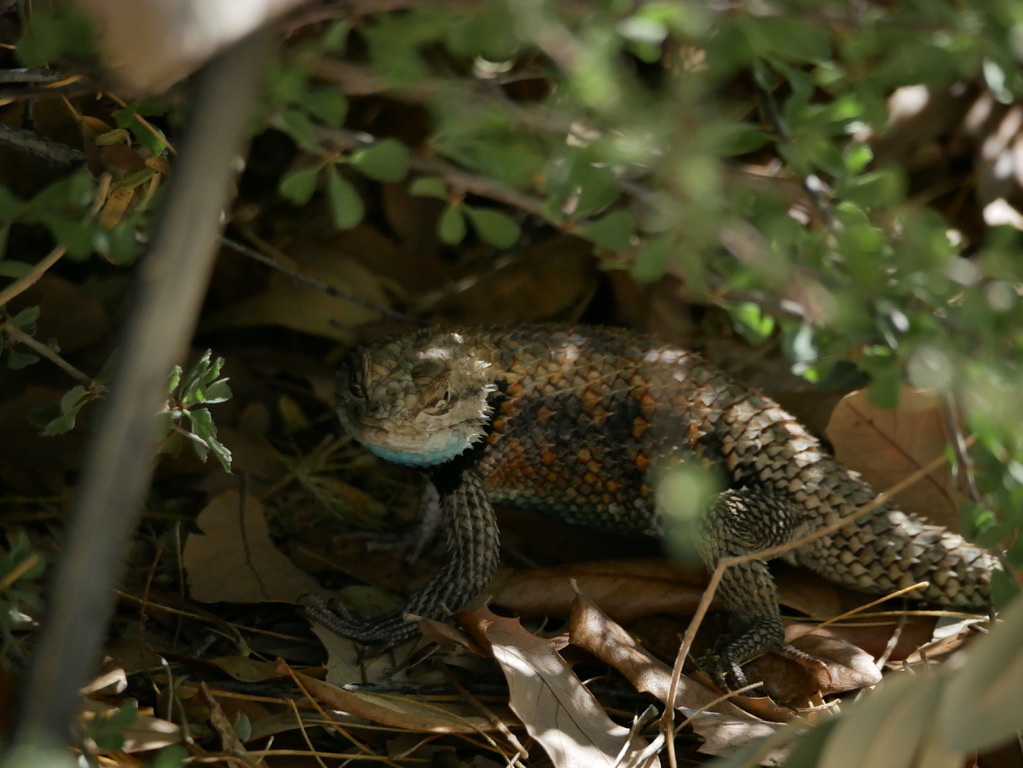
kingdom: Animalia
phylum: Chordata
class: Squamata
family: Phrynosomatidae
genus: Sceloporus
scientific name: Sceloporus magister
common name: Desert spiny lizard
